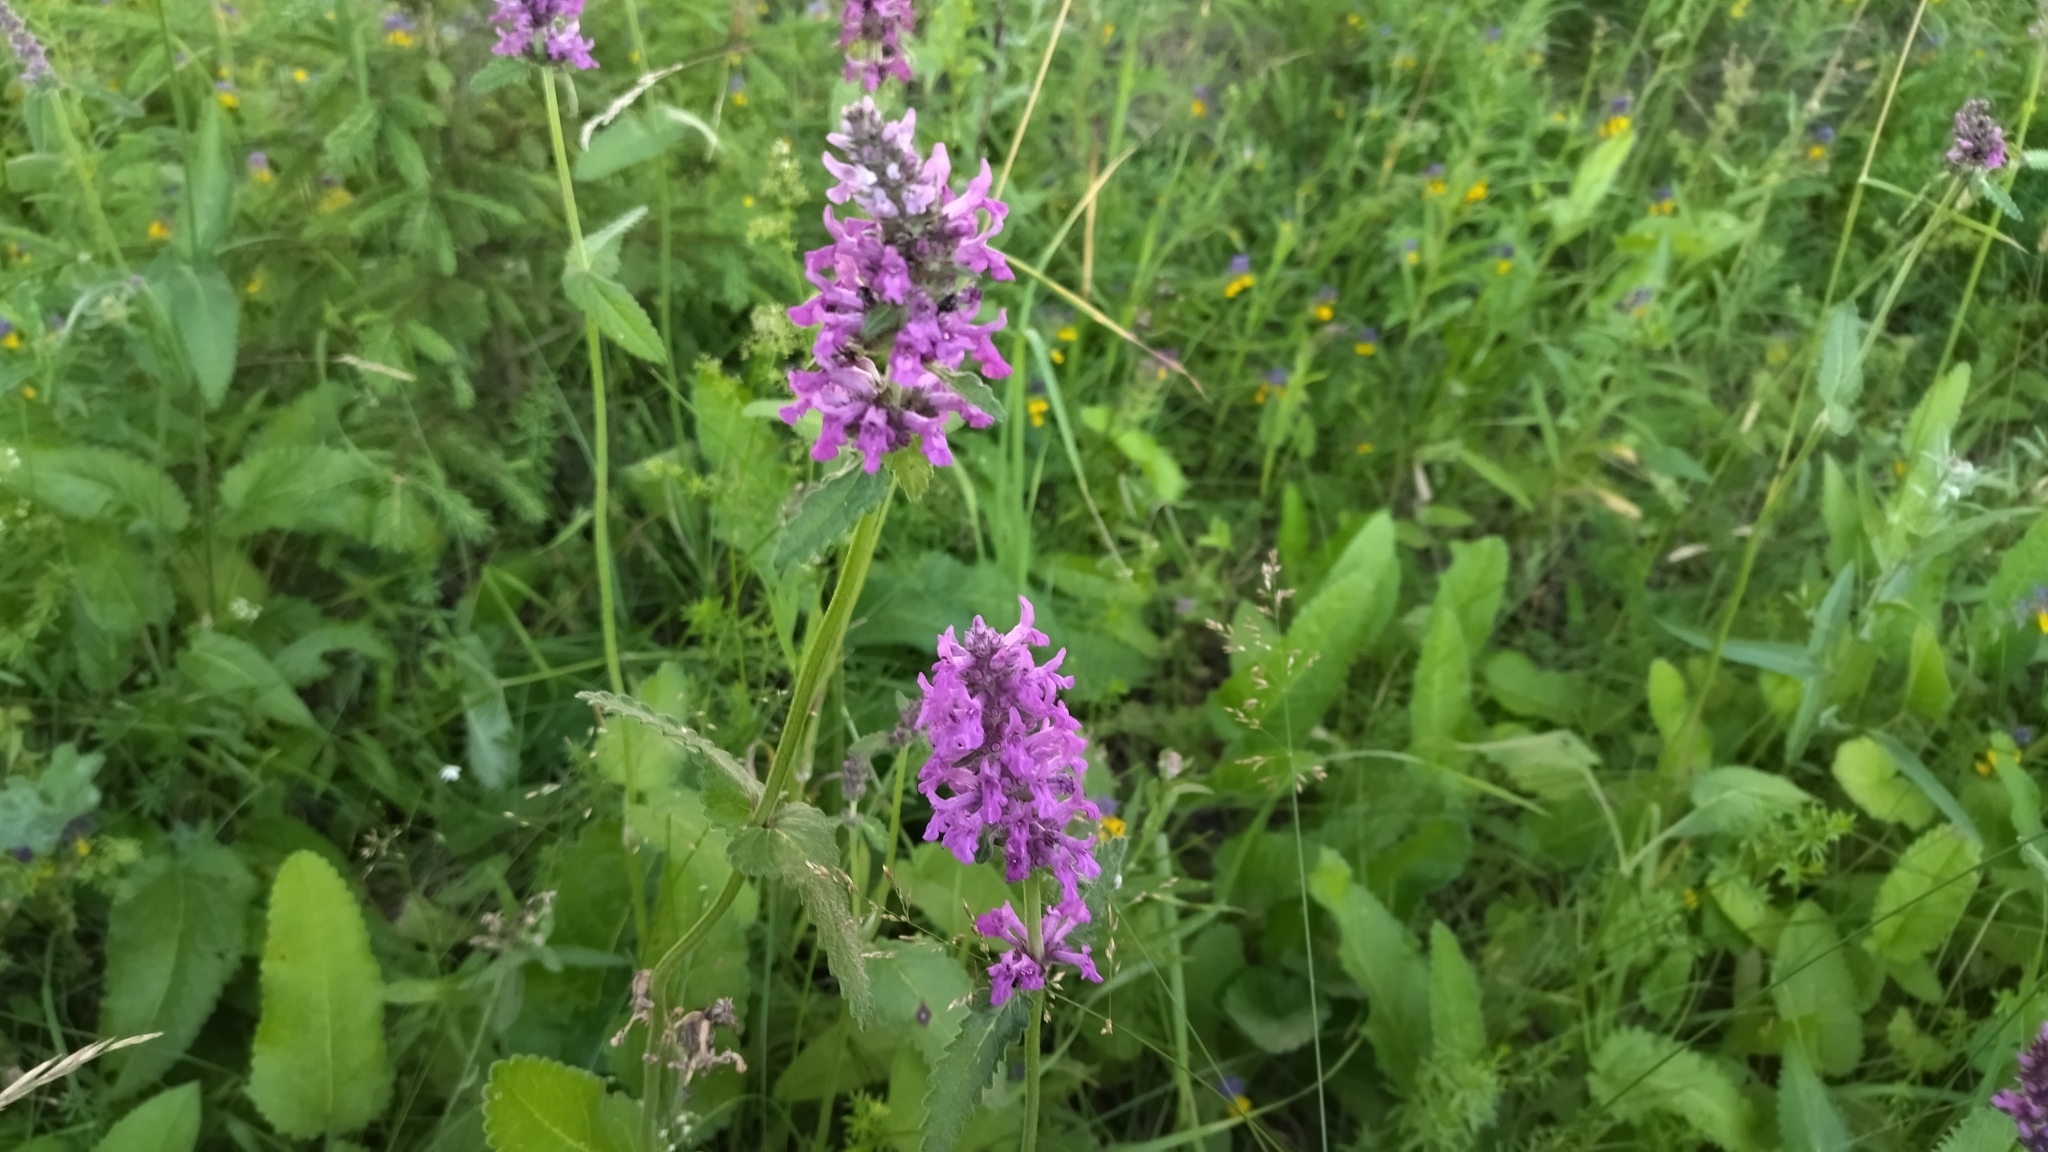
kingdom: Plantae
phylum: Tracheophyta
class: Magnoliopsida
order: Lamiales
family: Lamiaceae
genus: Betonica
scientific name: Betonica officinalis
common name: Bishop's-wort
